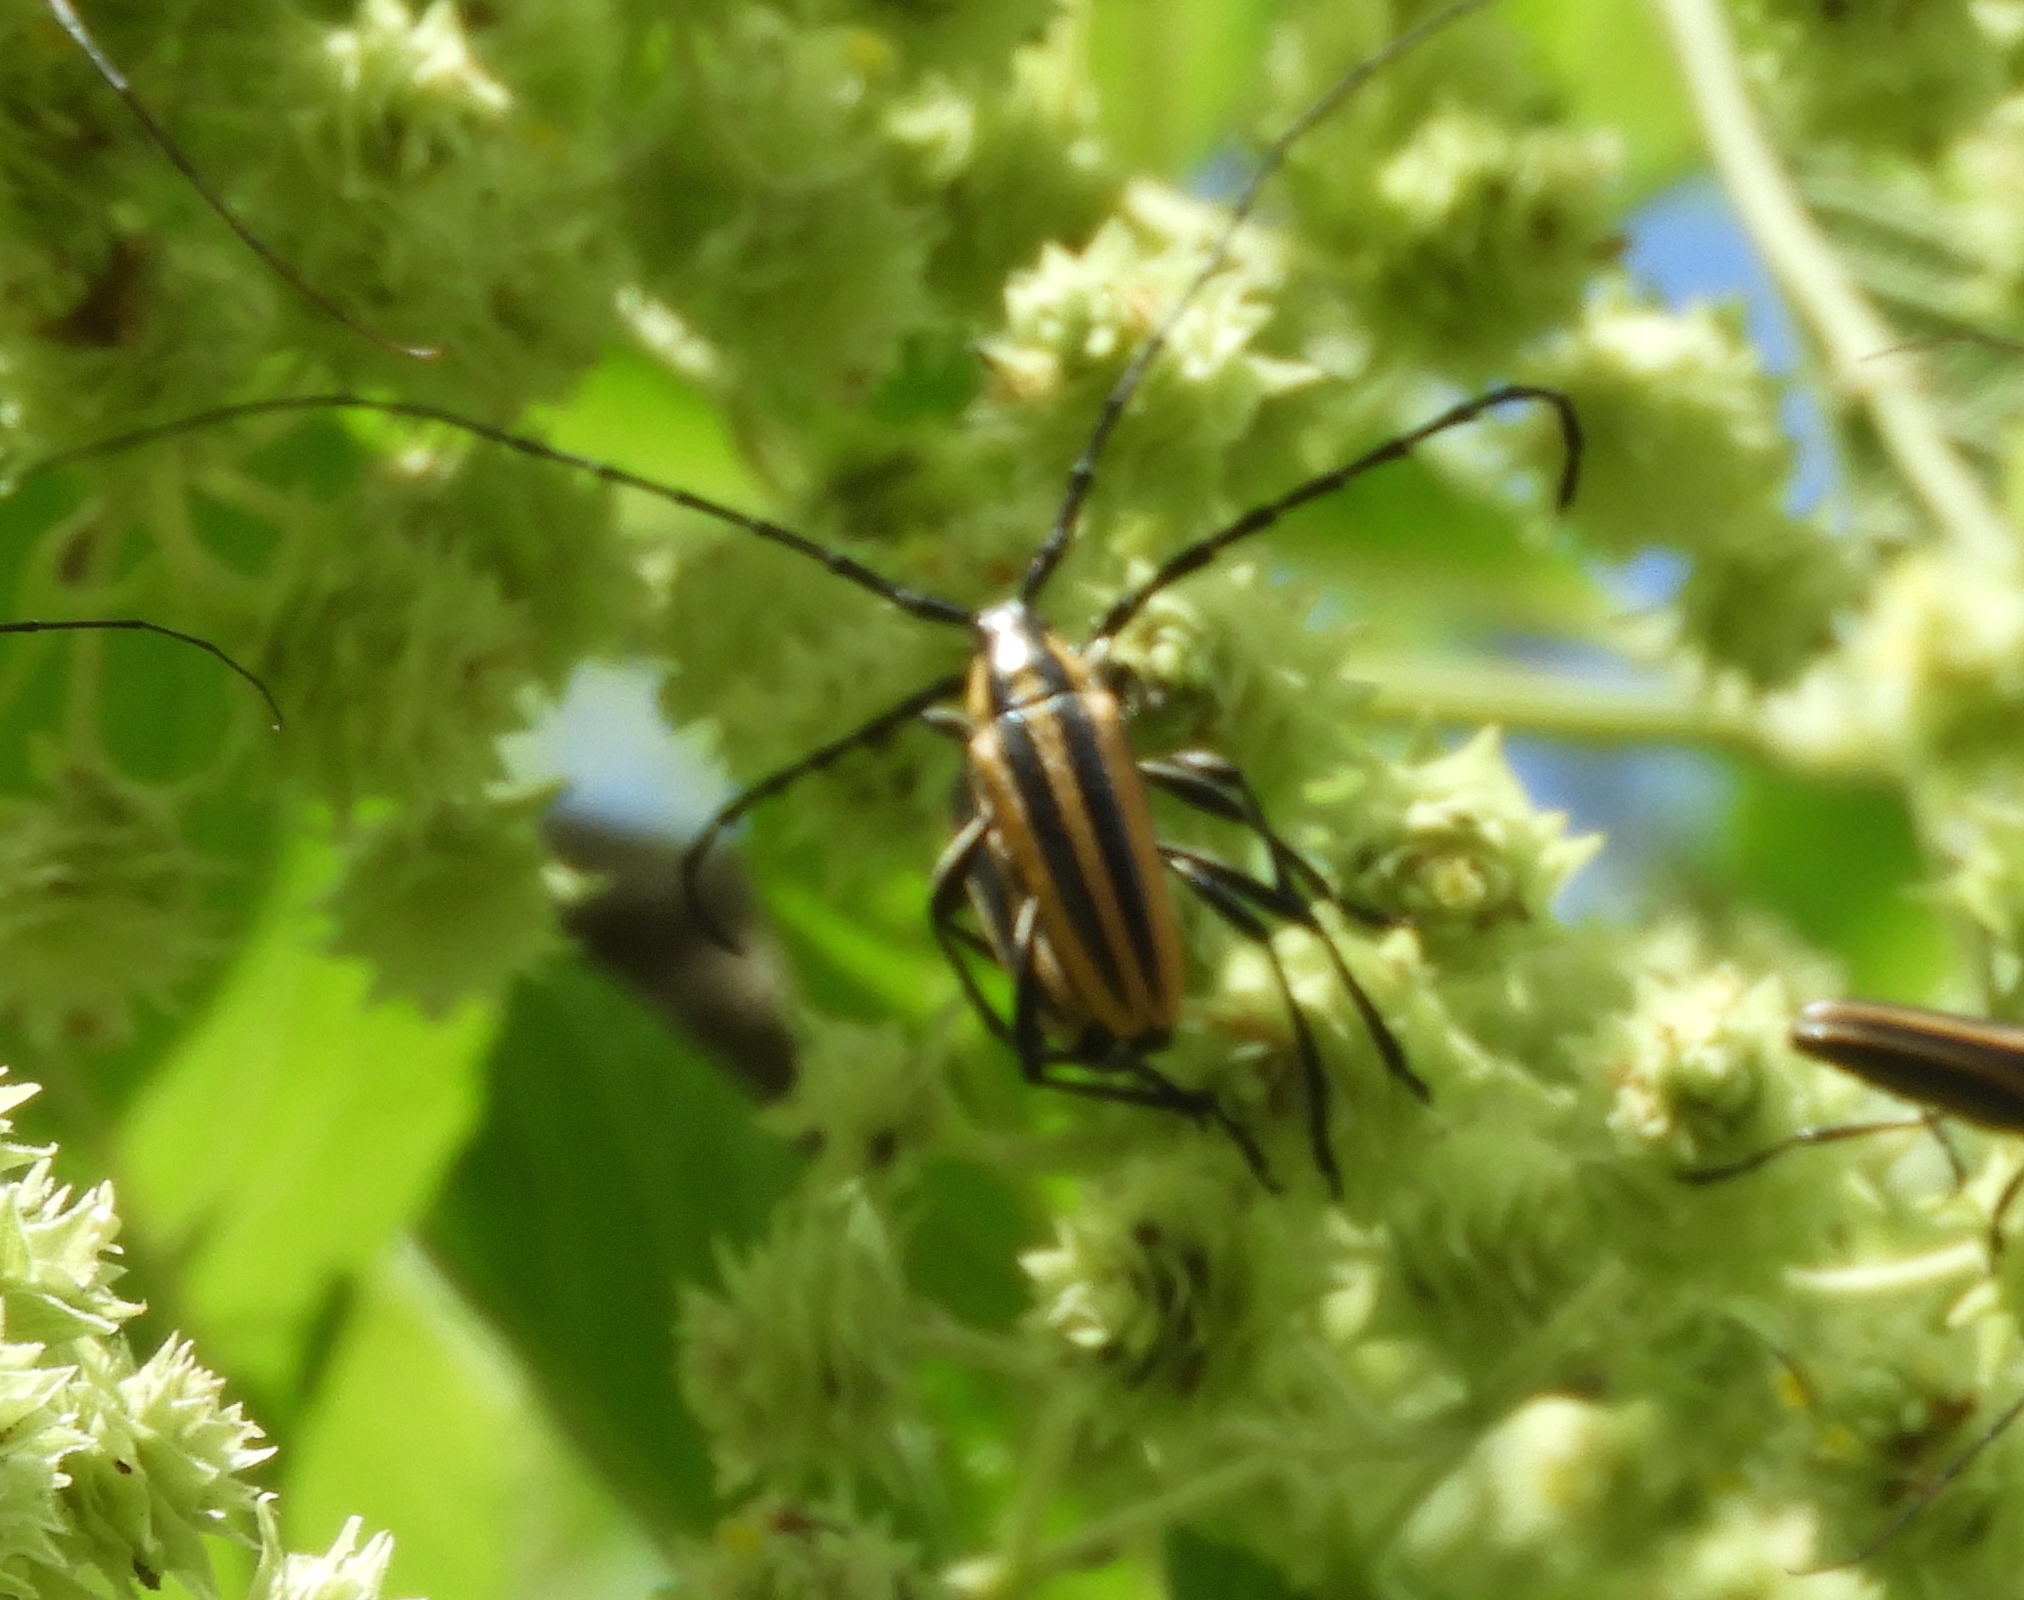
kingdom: Animalia
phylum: Arthropoda
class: Insecta
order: Coleoptera
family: Cerambycidae
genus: Sphaenothecus
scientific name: Sphaenothecus trilineatus
